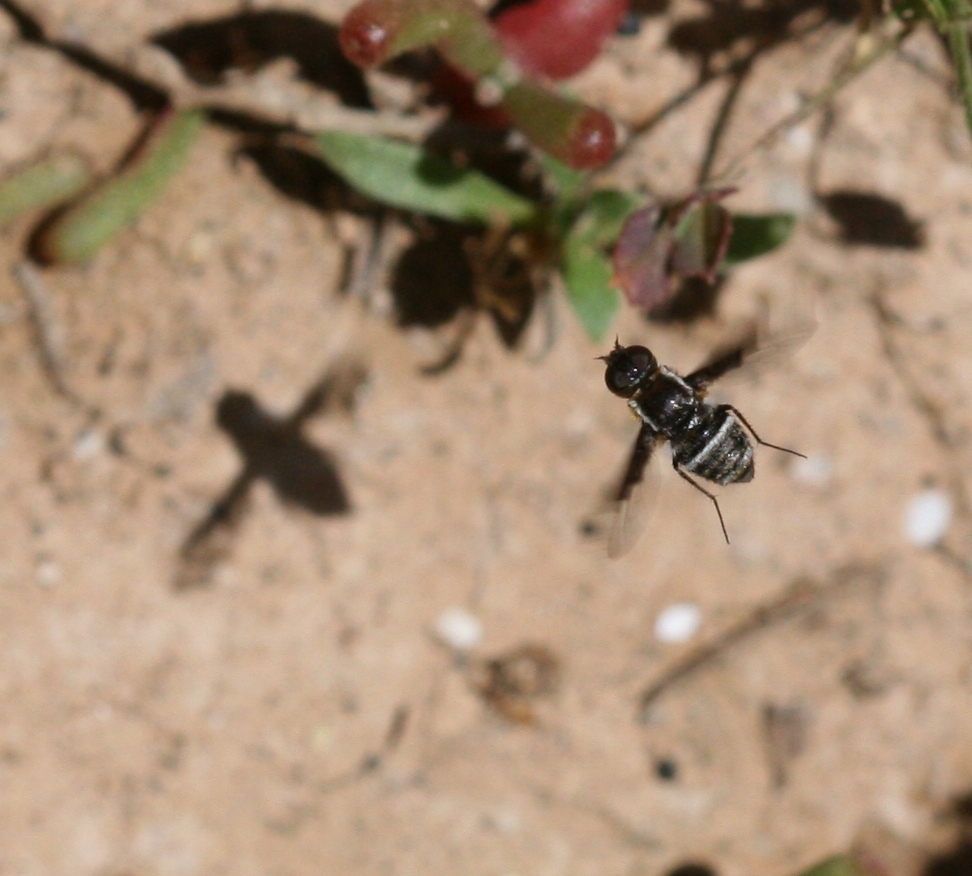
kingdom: Animalia
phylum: Arthropoda
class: Insecta
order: Diptera
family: Bombyliidae
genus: Exhyalanthrax
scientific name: Exhyalanthrax simonae
